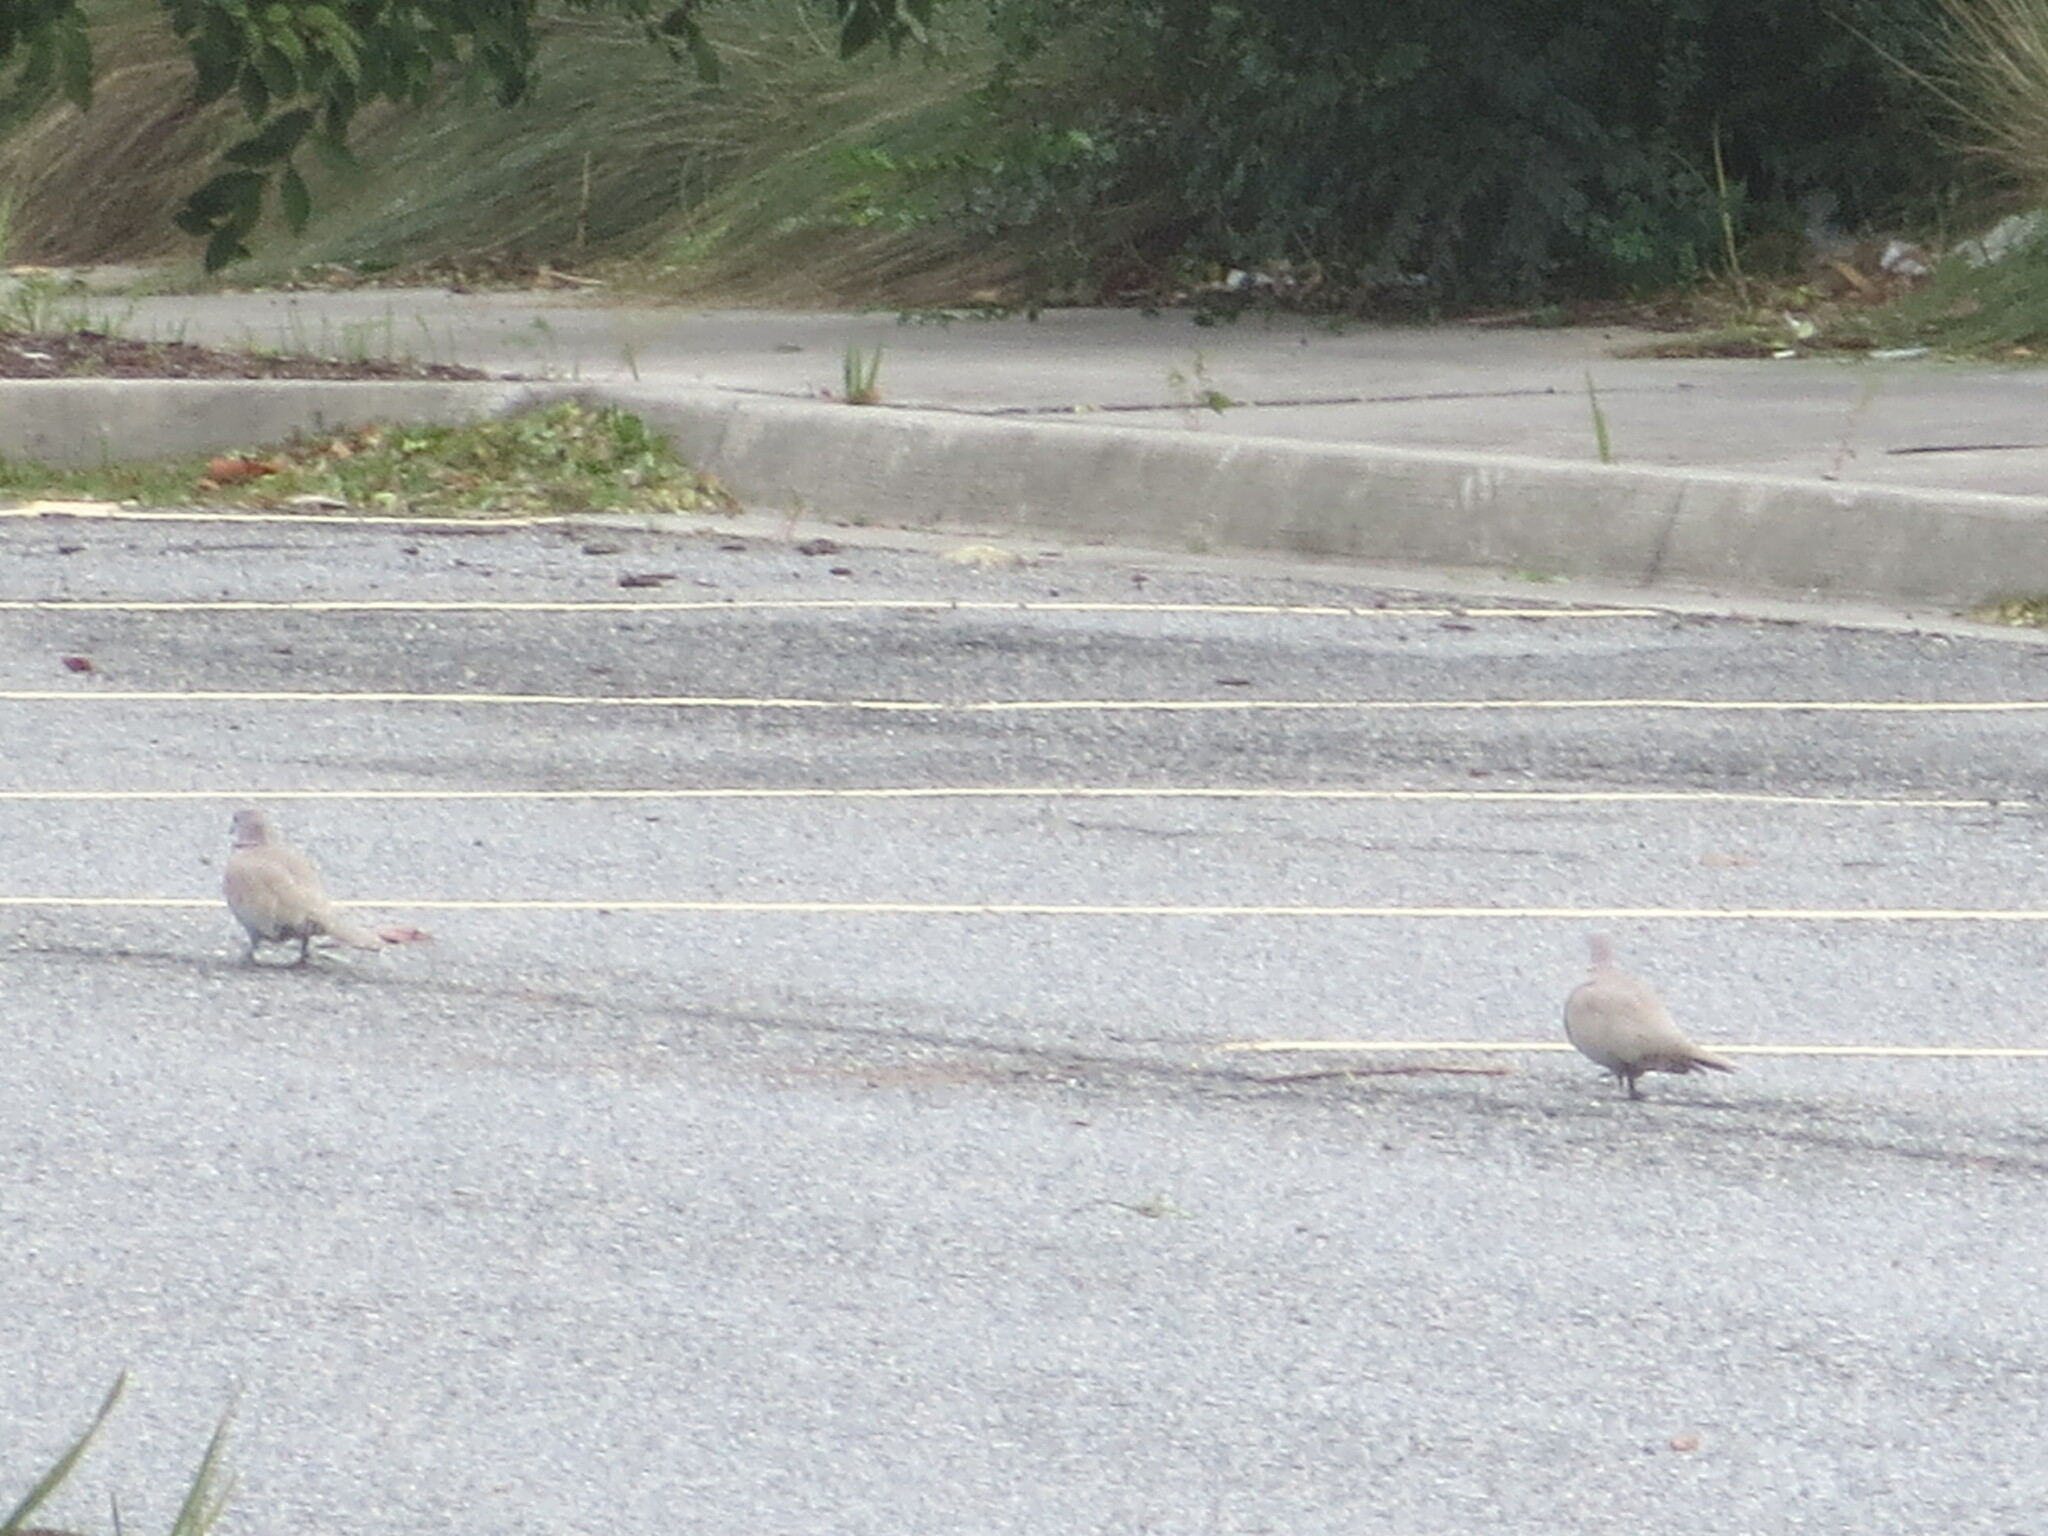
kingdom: Animalia
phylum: Chordata
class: Aves
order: Columbiformes
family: Columbidae
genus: Streptopelia
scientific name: Streptopelia decaocto
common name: Eurasian collared dove
